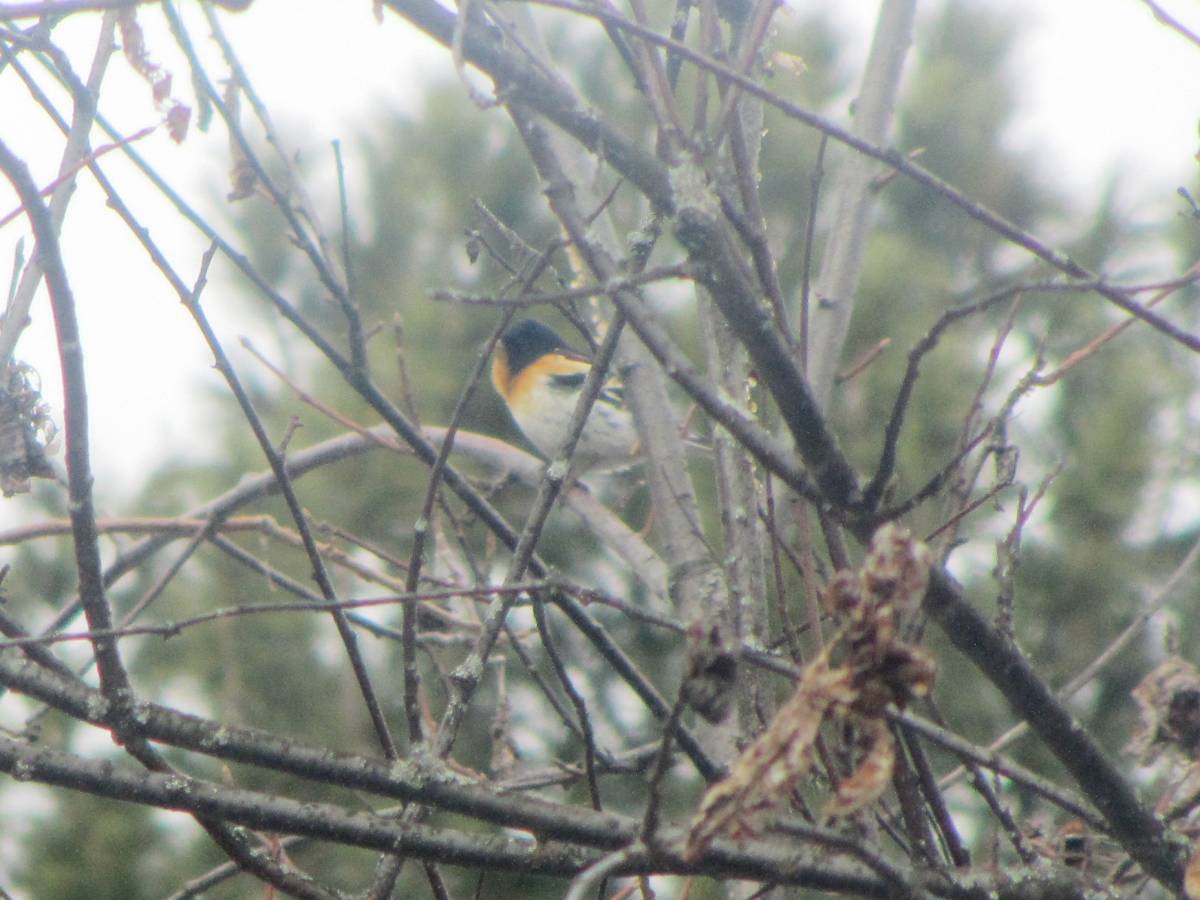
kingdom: Animalia
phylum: Chordata
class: Aves
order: Passeriformes
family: Fringillidae
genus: Fringilla
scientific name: Fringilla montifringilla
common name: Brambling
